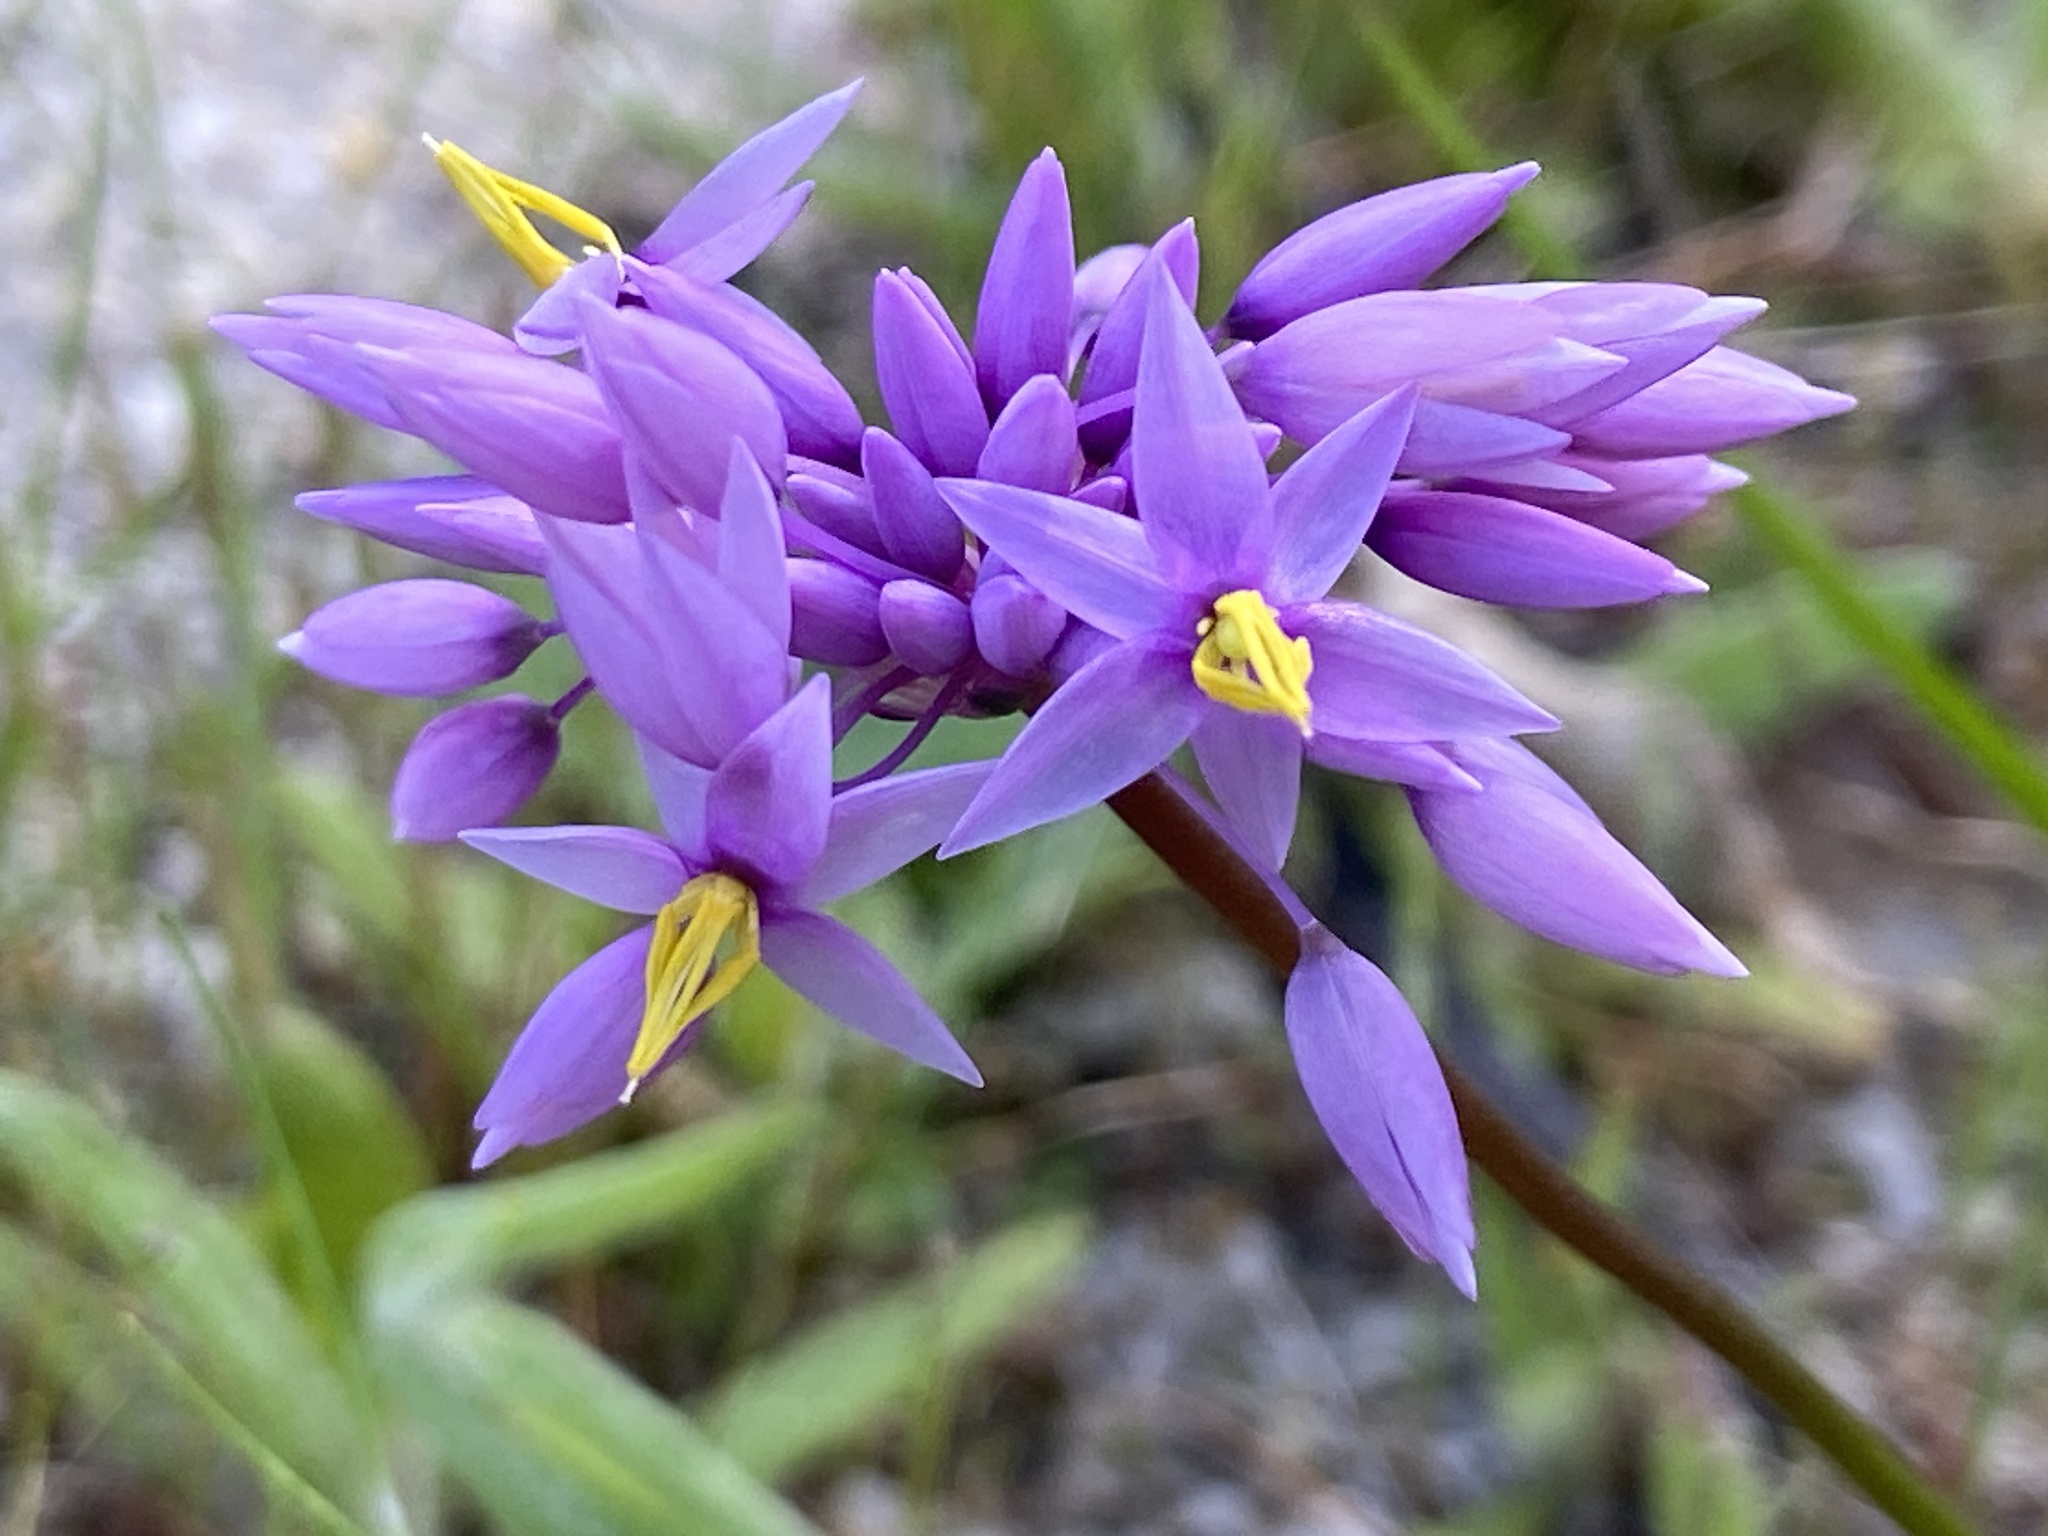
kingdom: Plantae
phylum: Tracheophyta
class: Liliopsida
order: Asparagales
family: Asparagaceae
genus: Sowerbaea
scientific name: Sowerbaea laxiflora
